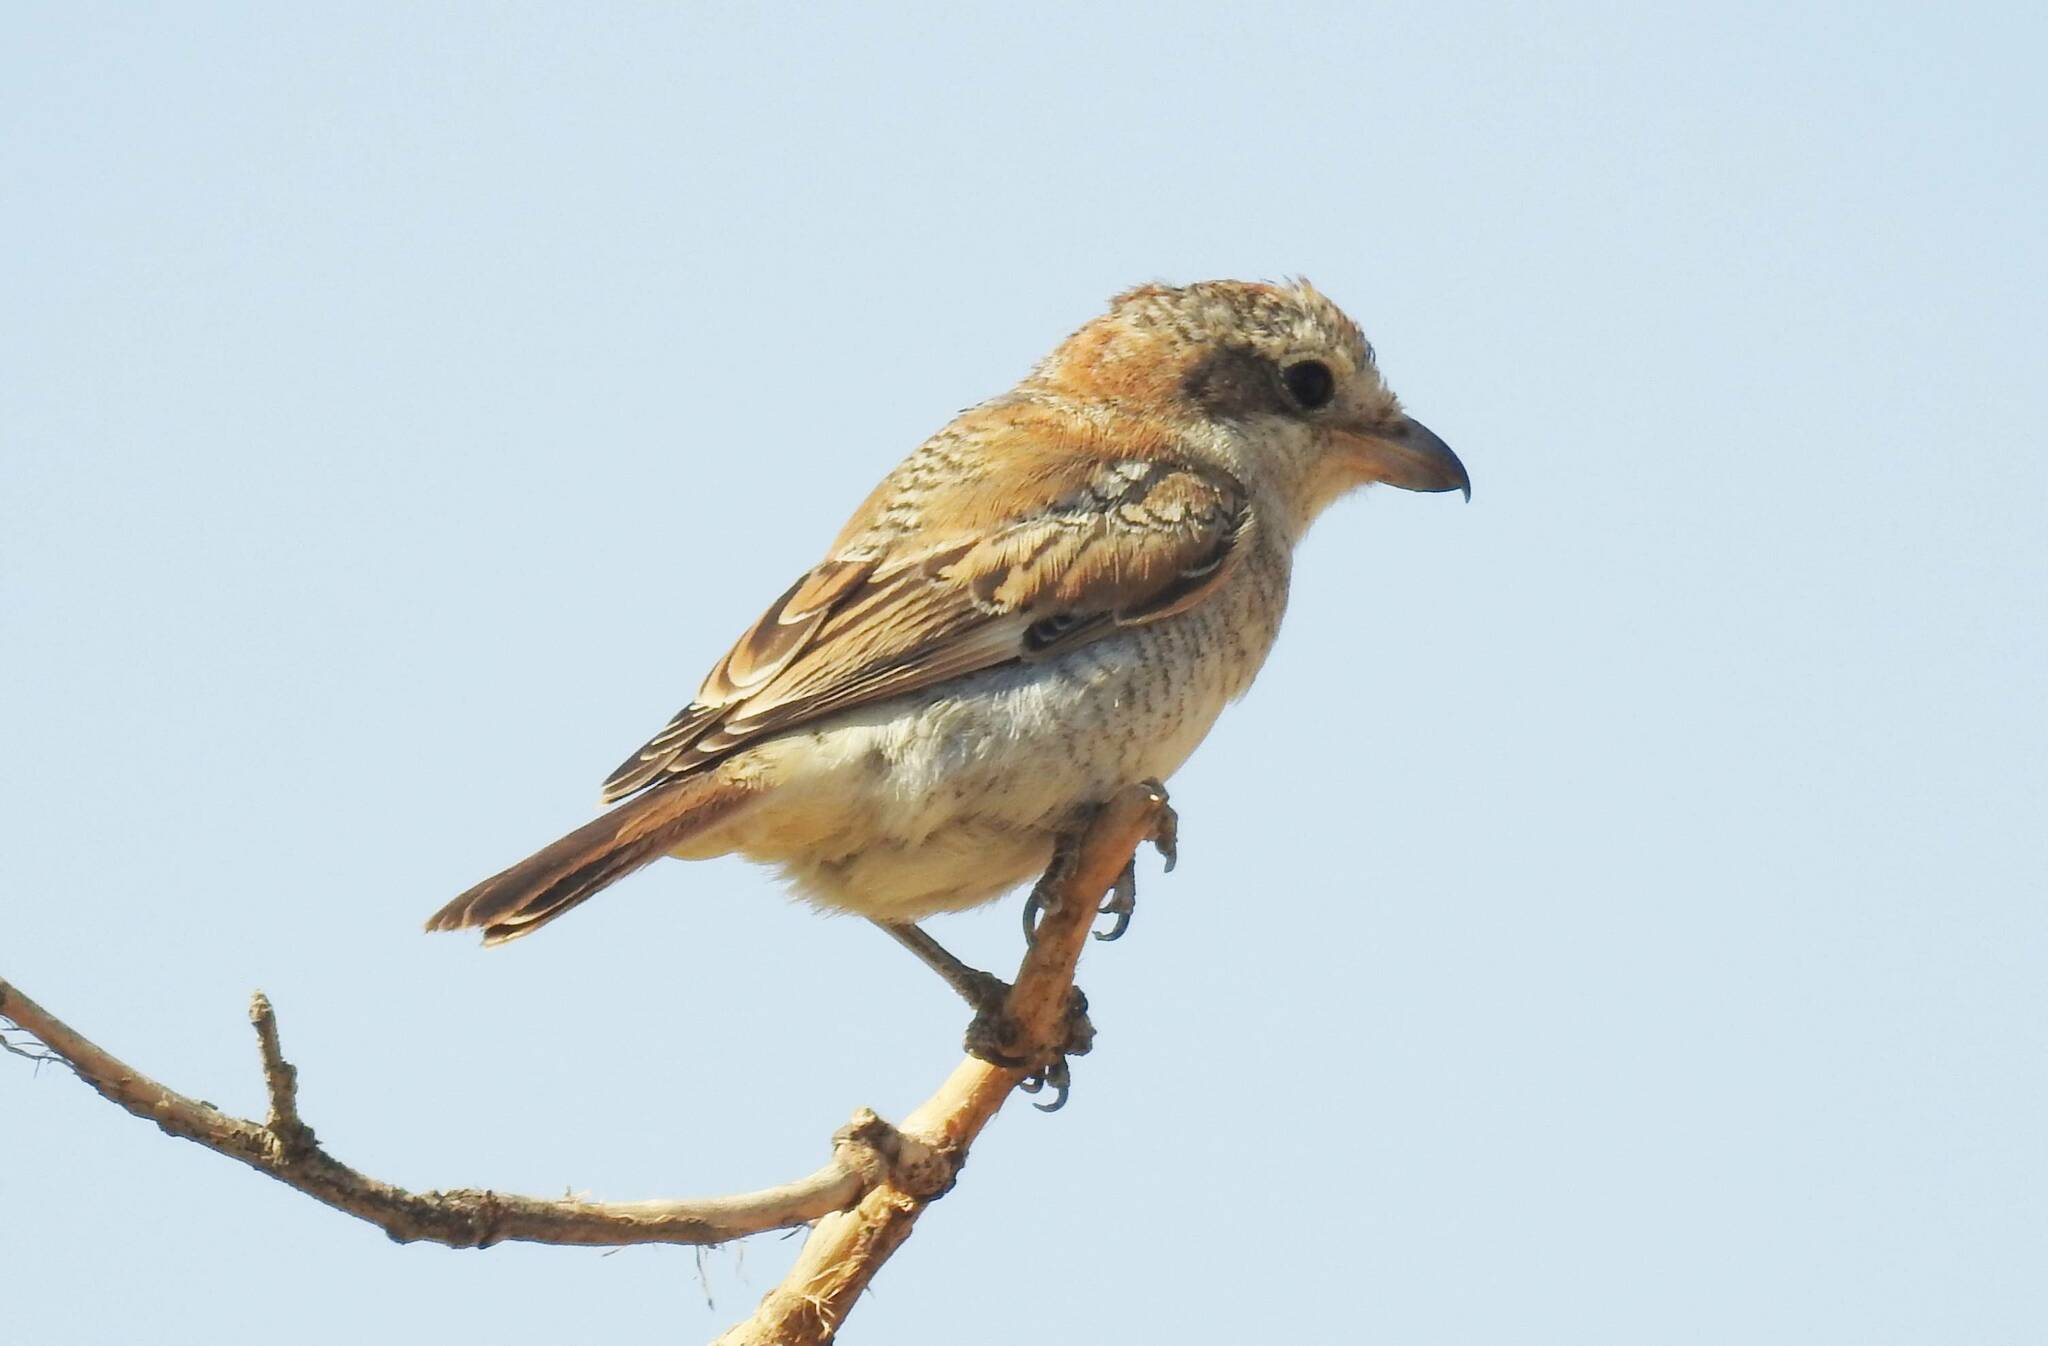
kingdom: Animalia
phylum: Chordata
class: Aves
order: Passeriformes
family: Laniidae
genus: Lanius
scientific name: Lanius senator
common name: Woodchat shrike
